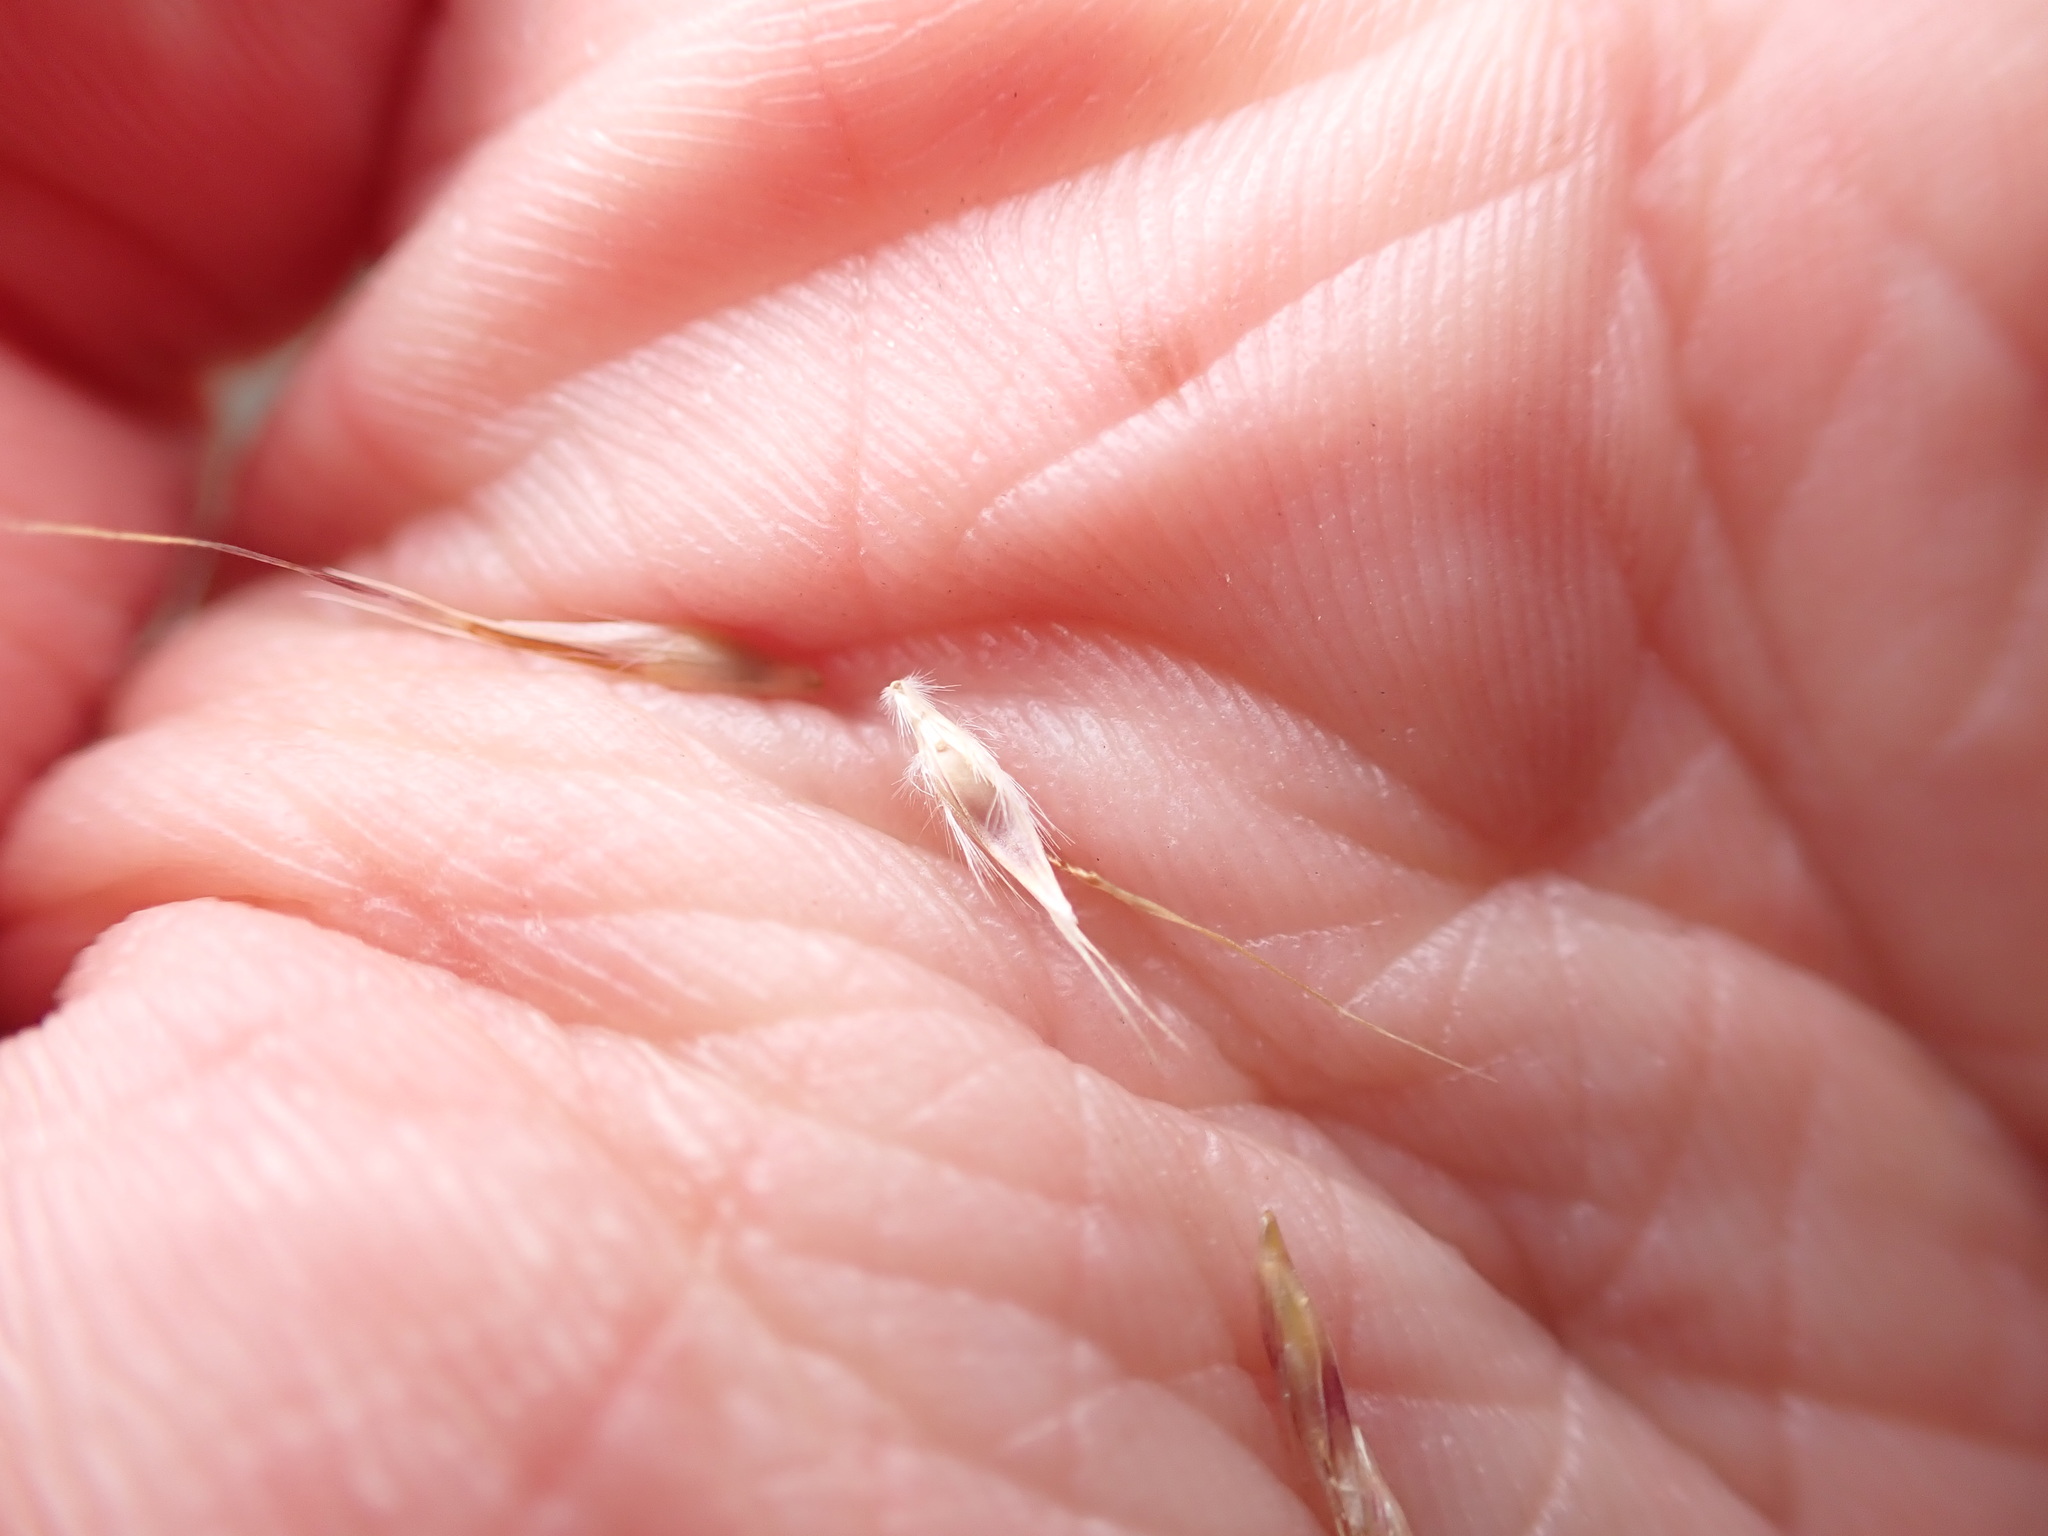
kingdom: Plantae
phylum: Tracheophyta
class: Liliopsida
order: Poales
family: Poaceae
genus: Rytidosperma
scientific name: Rytidosperma alpicola
